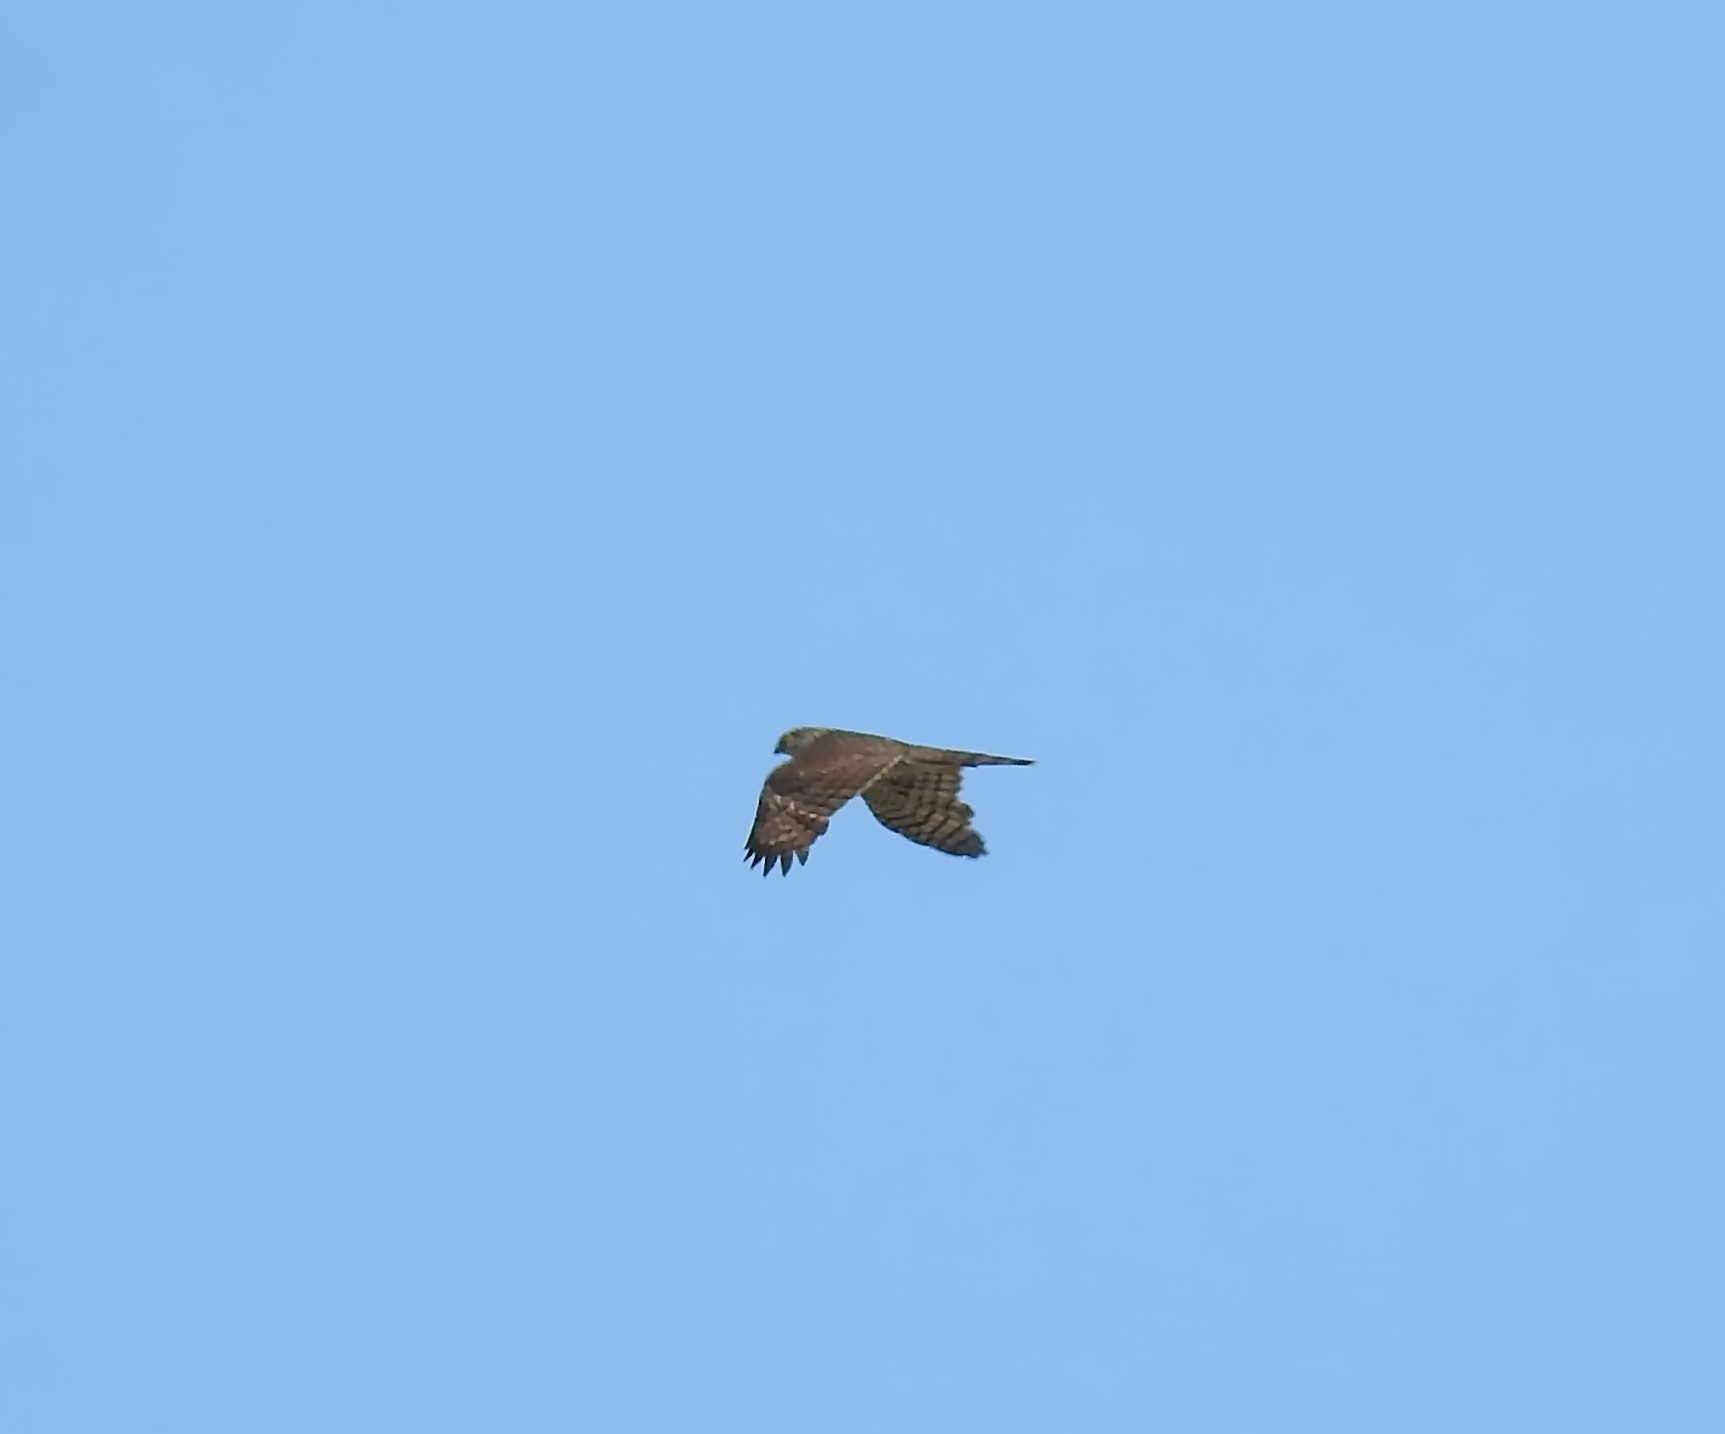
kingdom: Animalia
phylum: Chordata
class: Aves
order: Accipitriformes
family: Accipitridae
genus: Accipiter
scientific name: Accipiter nisus
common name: Eurasian sparrowhawk
